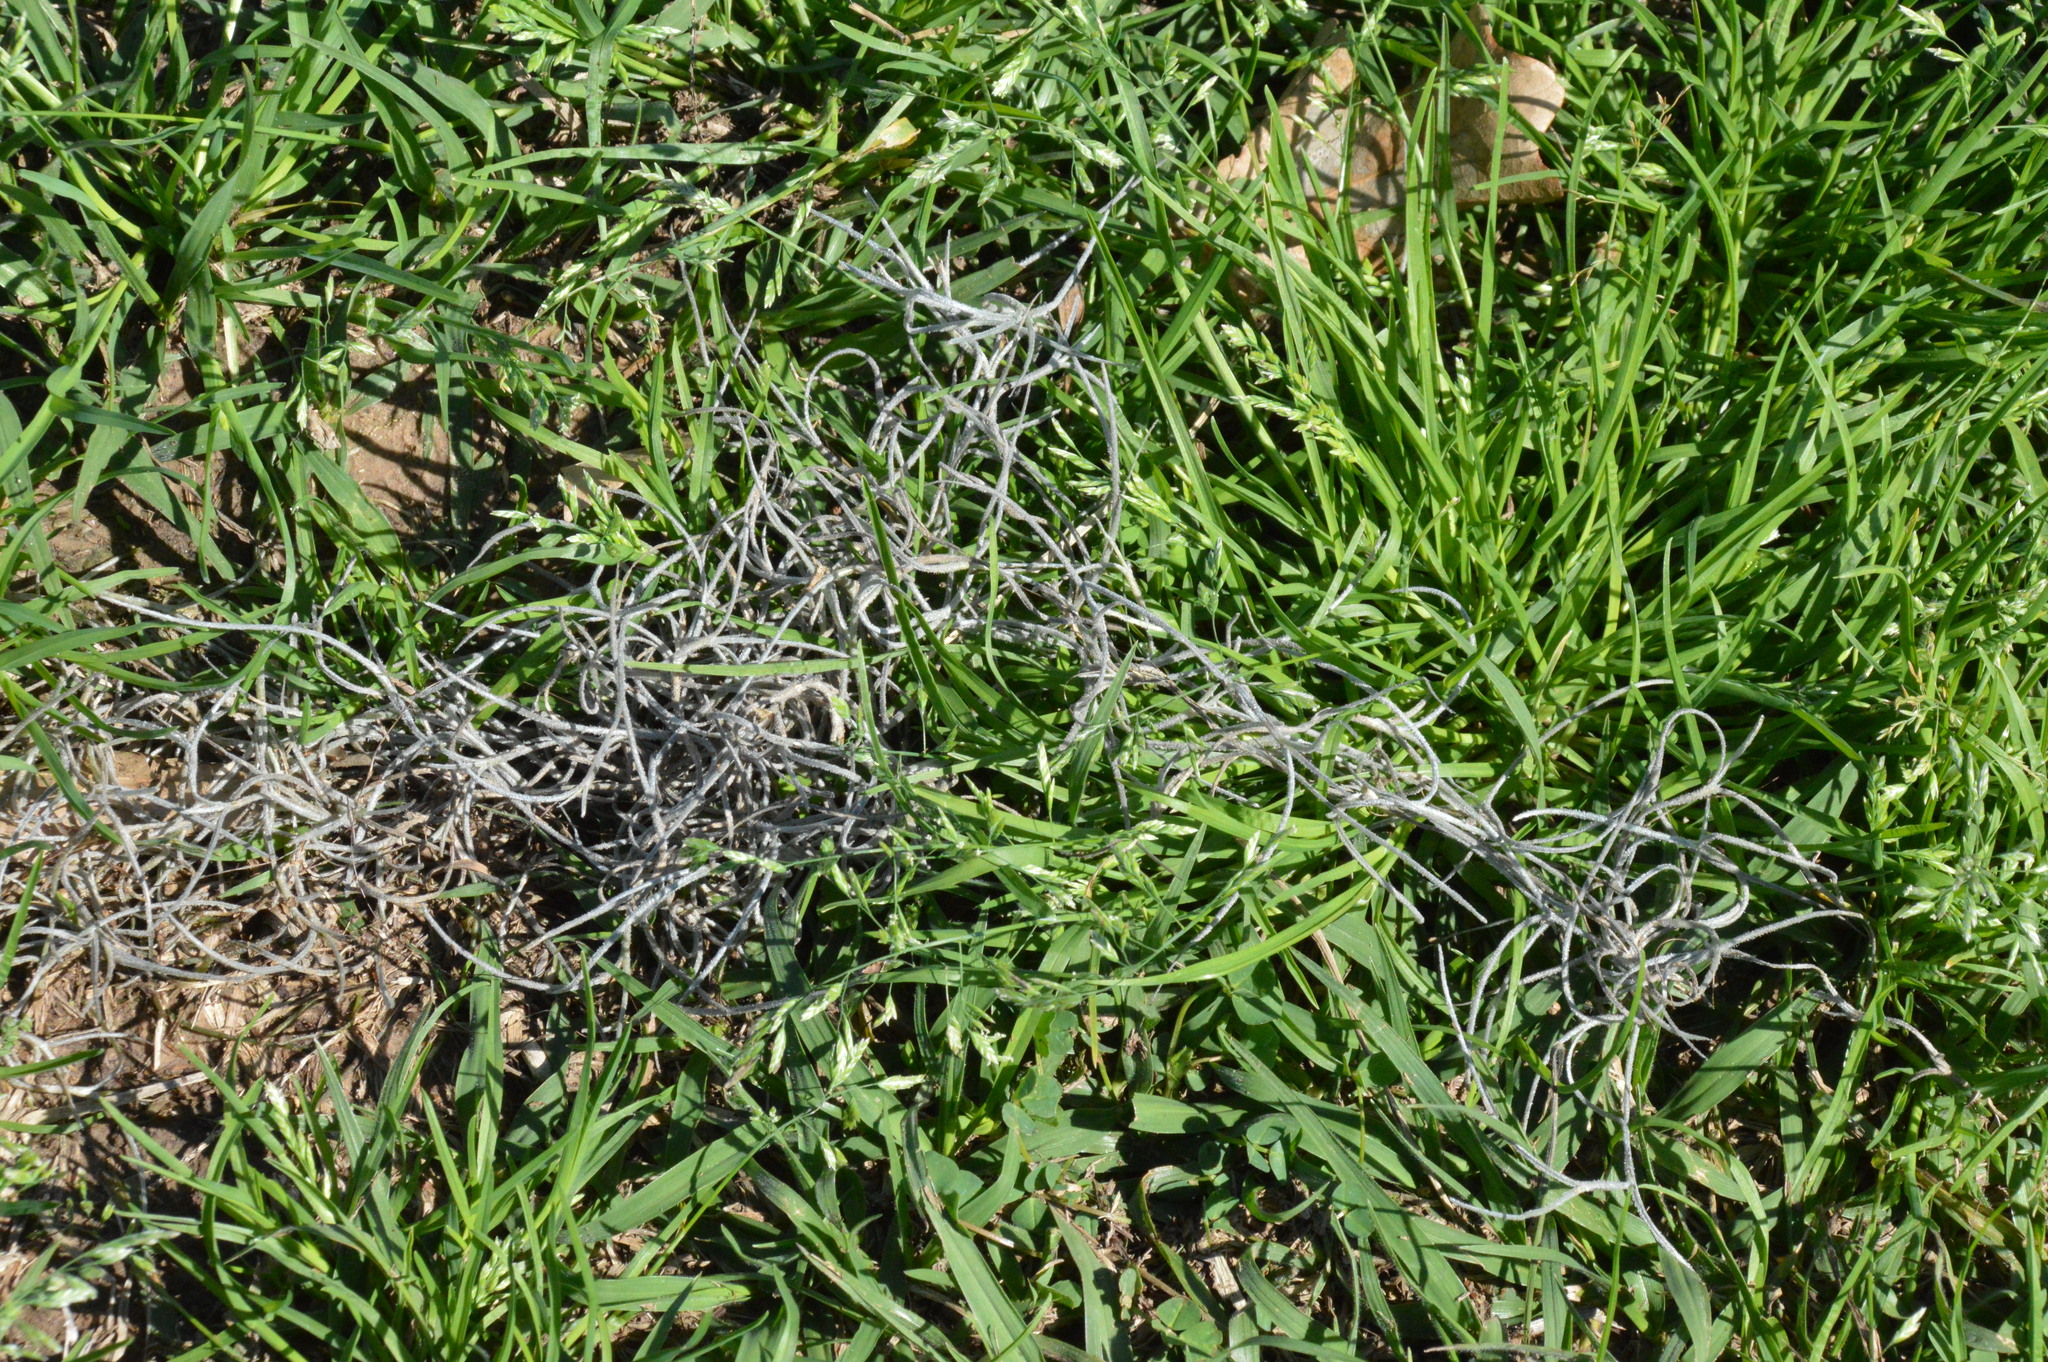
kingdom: Plantae
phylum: Tracheophyta
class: Liliopsida
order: Poales
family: Bromeliaceae
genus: Tillandsia
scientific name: Tillandsia usneoides
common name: Spanish moss
